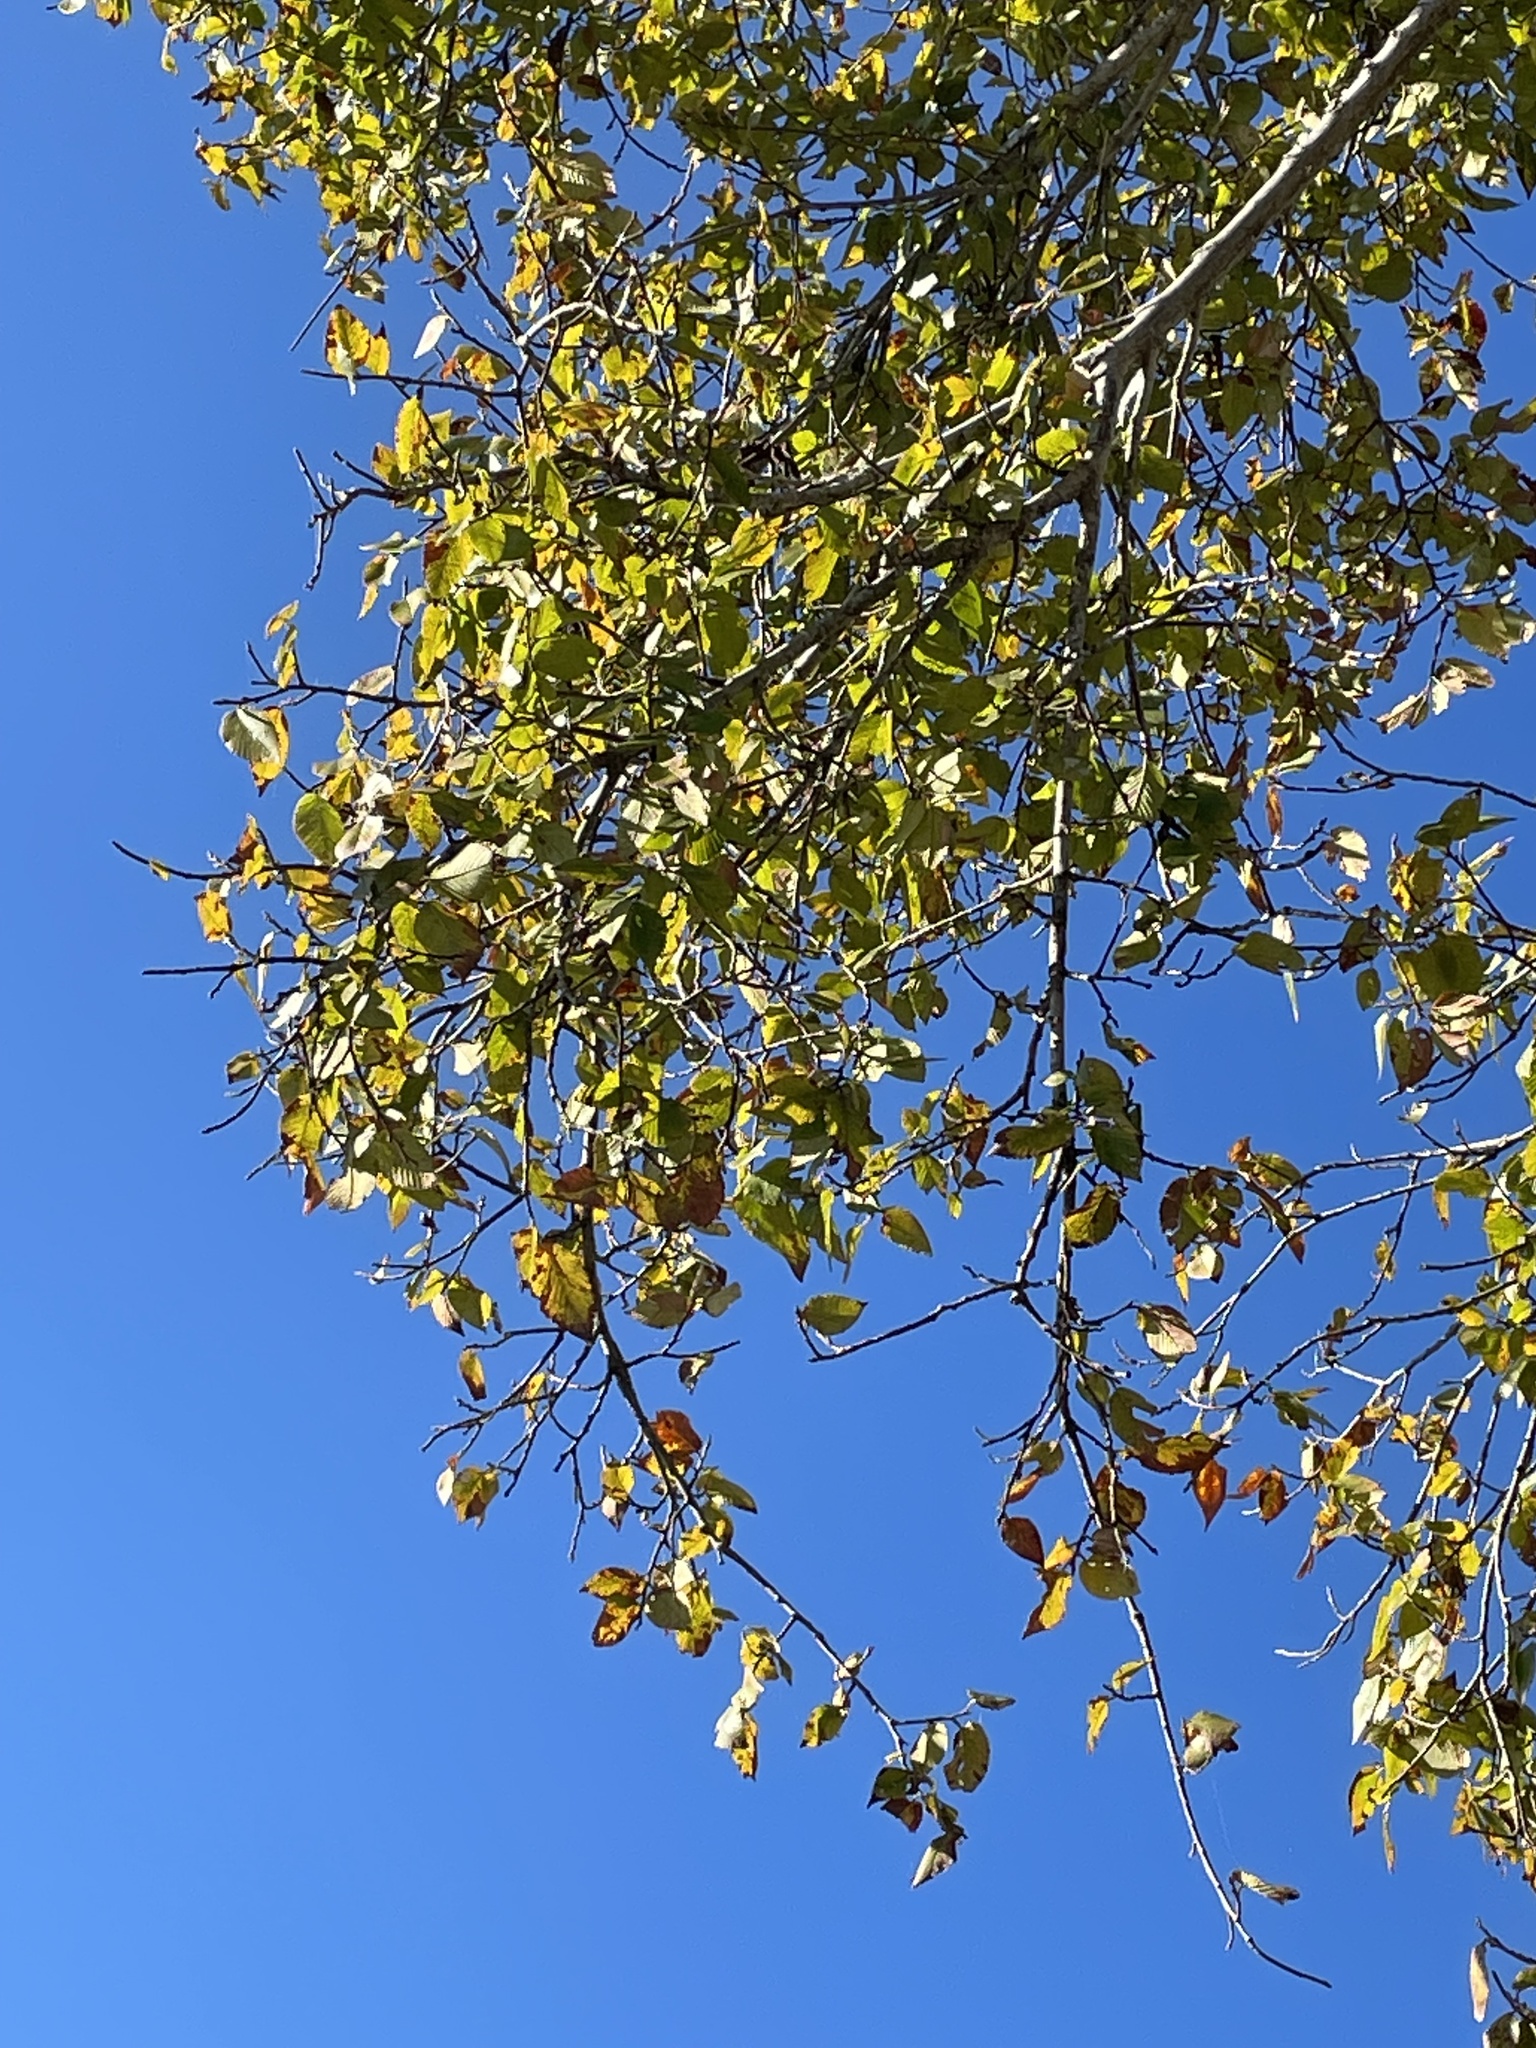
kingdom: Plantae
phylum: Tracheophyta
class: Magnoliopsida
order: Rosales
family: Ulmaceae
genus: Ulmus
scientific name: Ulmus americana
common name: American elm
